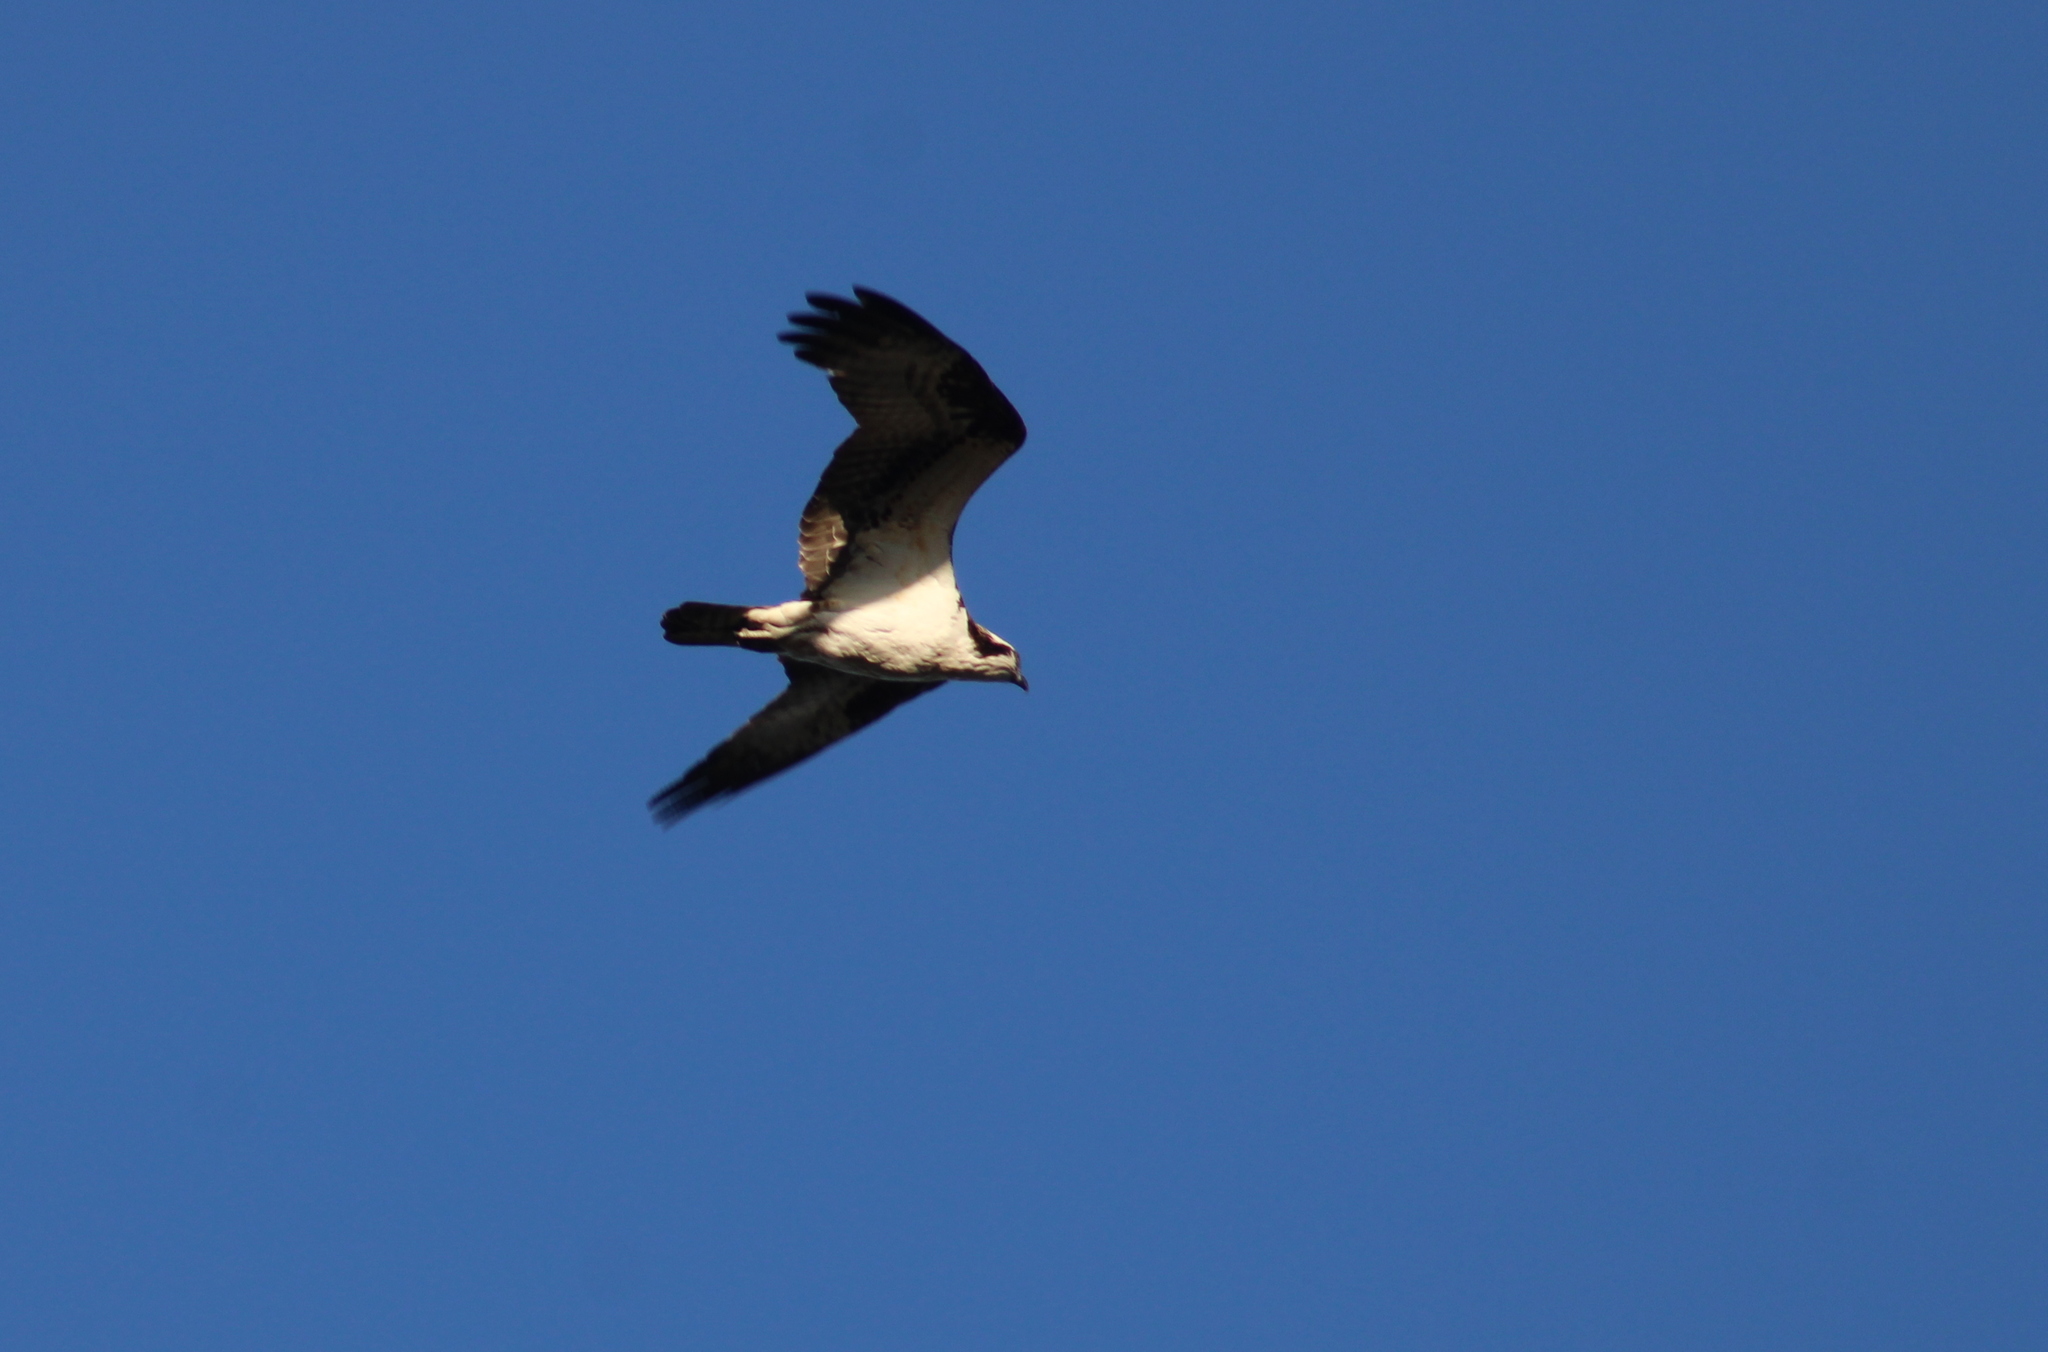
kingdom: Animalia
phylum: Chordata
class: Aves
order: Accipitriformes
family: Pandionidae
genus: Pandion
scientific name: Pandion haliaetus
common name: Osprey
